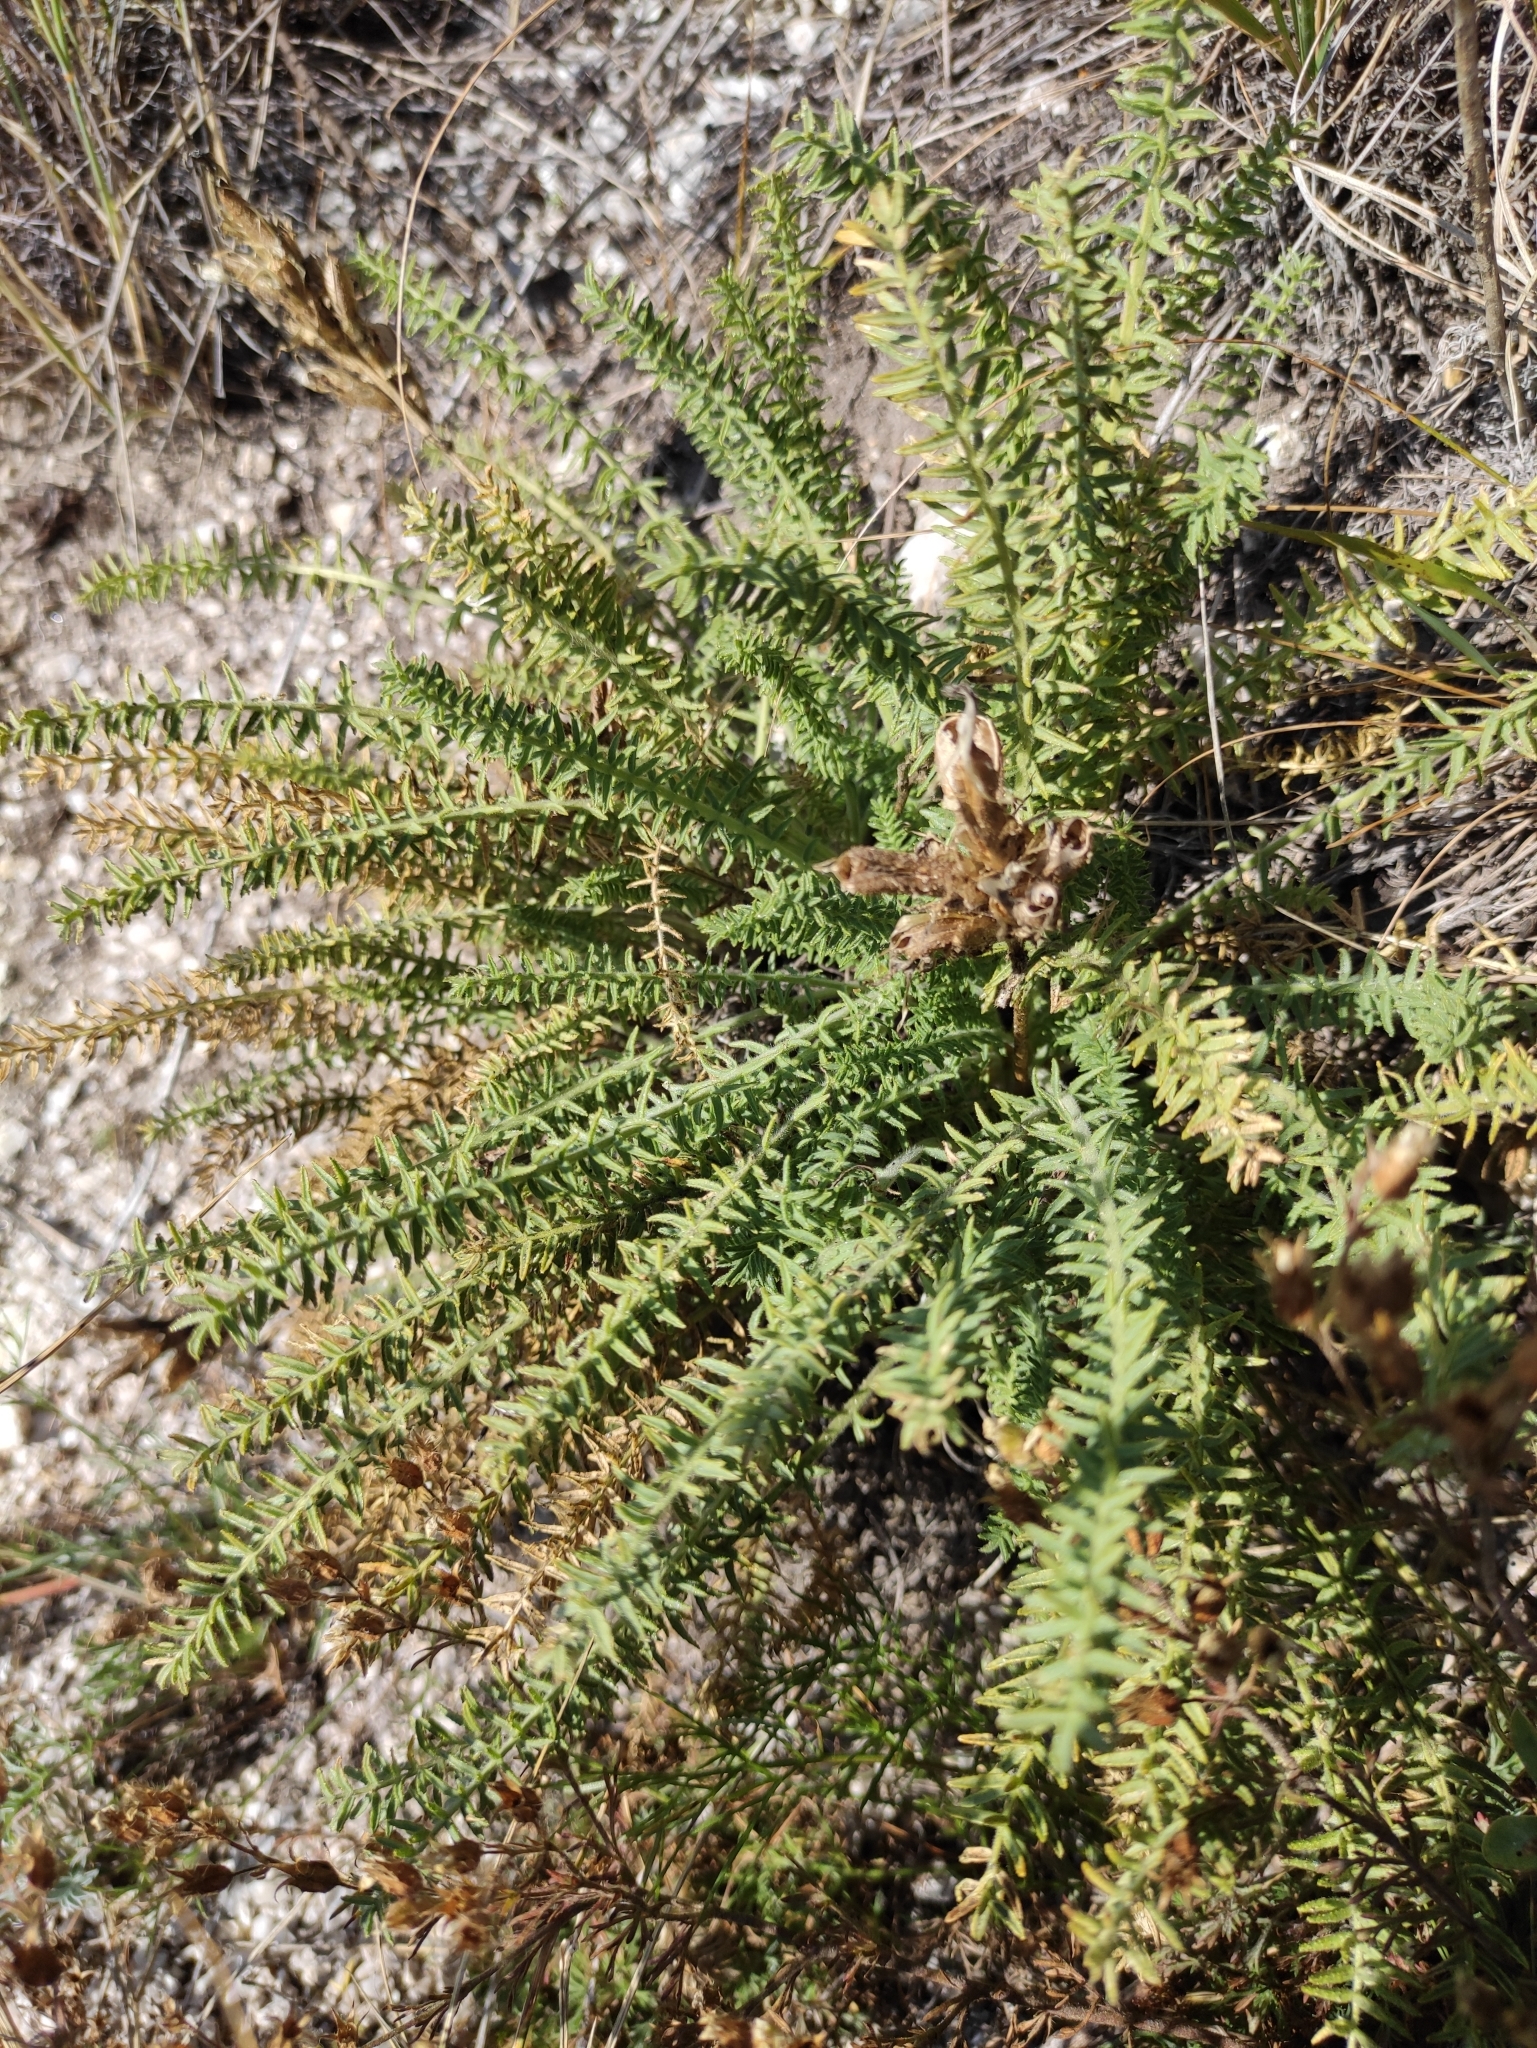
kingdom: Plantae
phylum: Tracheophyta
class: Magnoliopsida
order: Fabales
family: Fabaceae
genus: Oxytropis
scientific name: Oxytropis muricata
